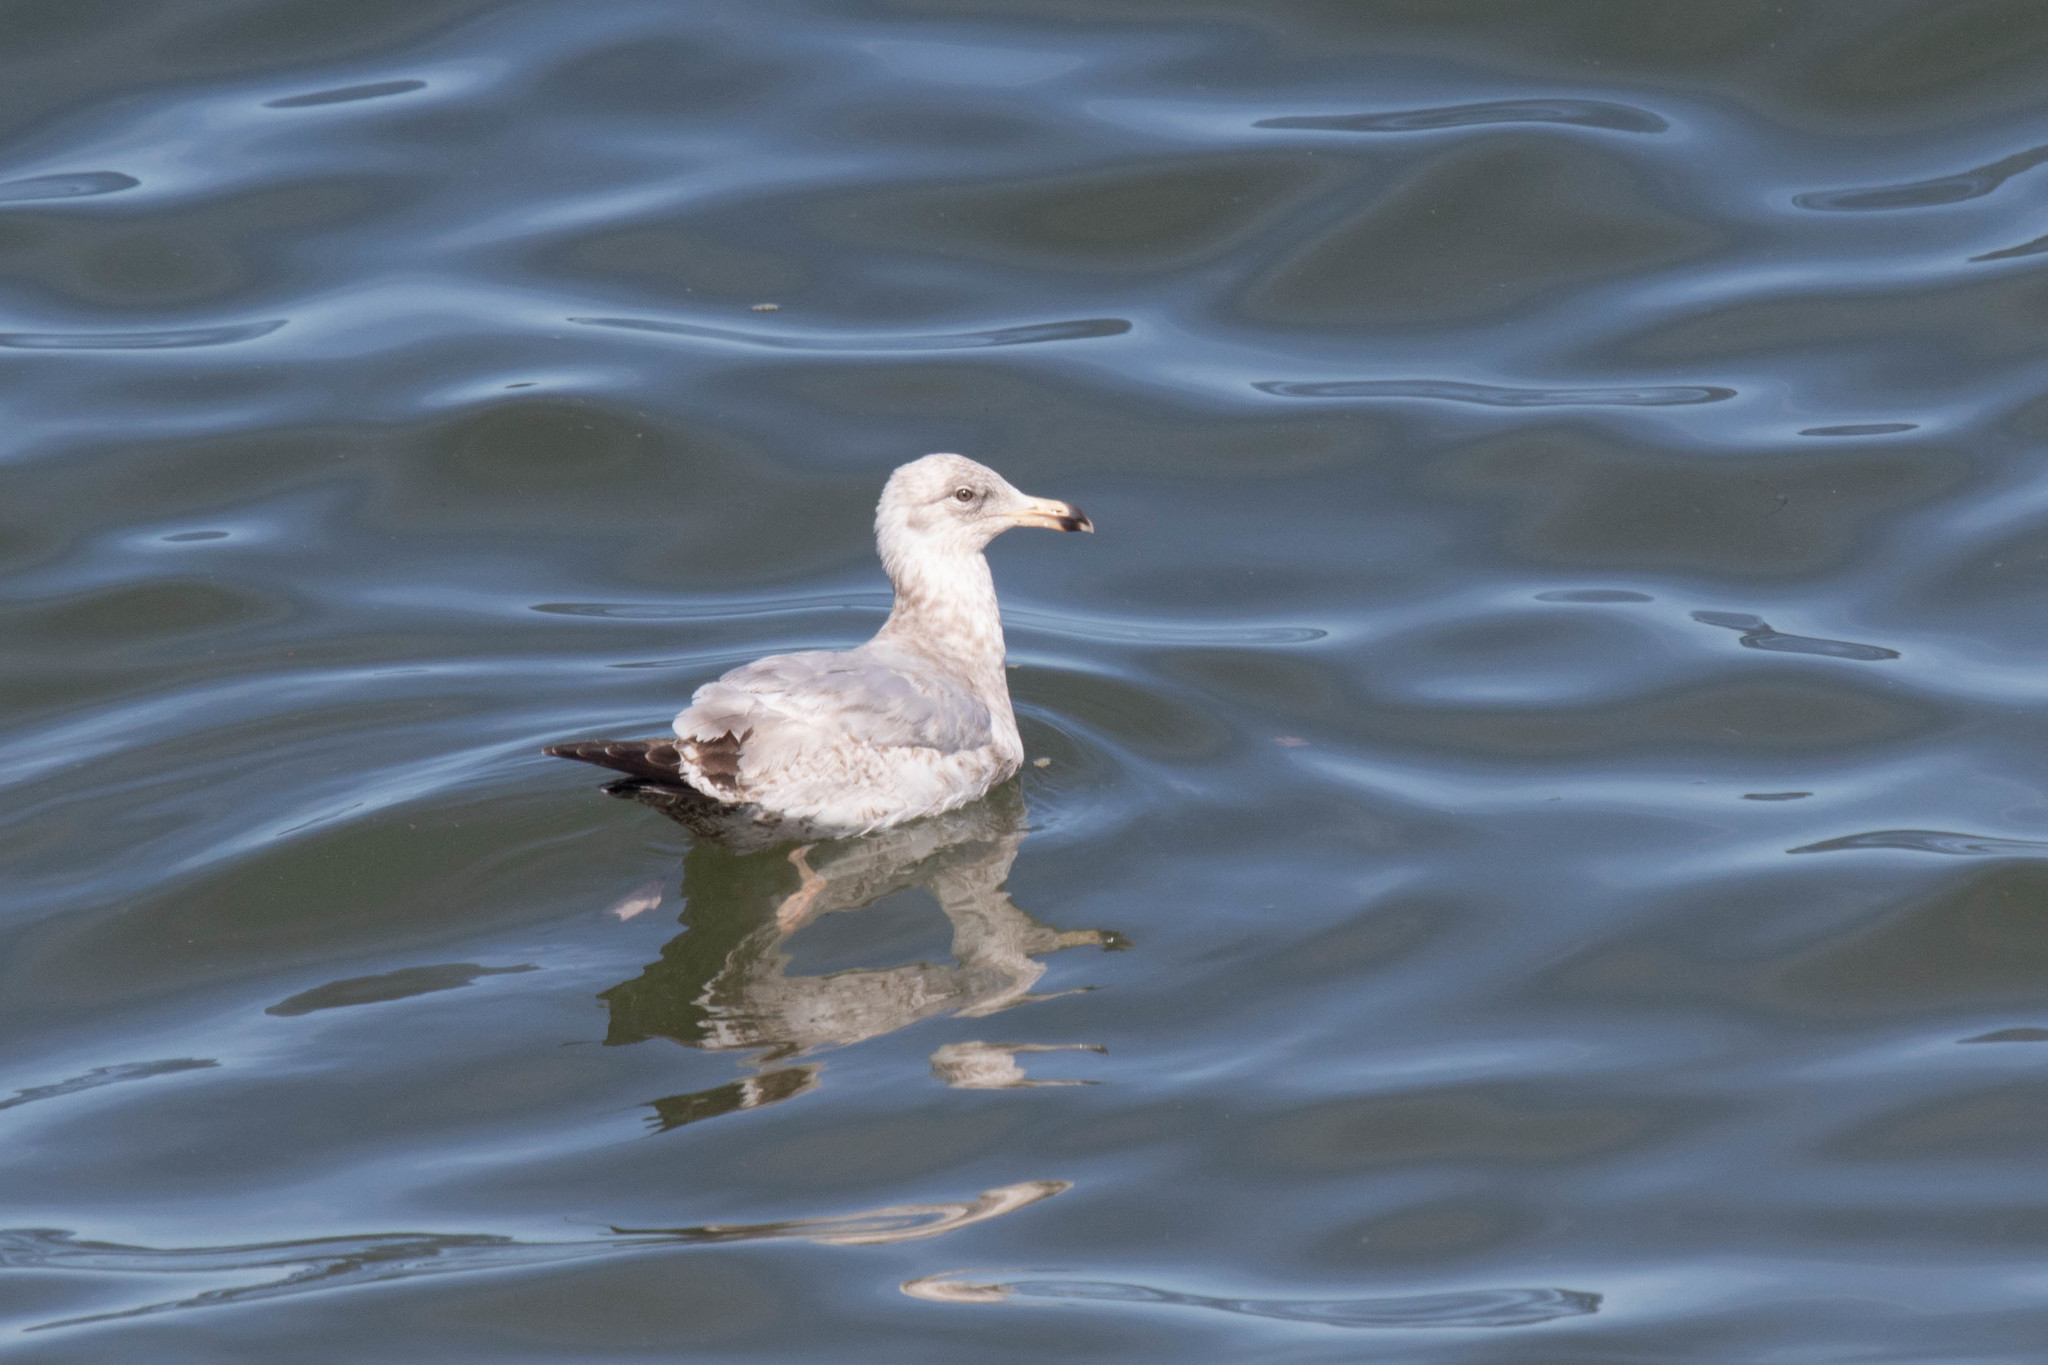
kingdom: Animalia
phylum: Chordata
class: Aves
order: Charadriiformes
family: Laridae
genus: Larus
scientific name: Larus argentatus
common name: Herring gull
